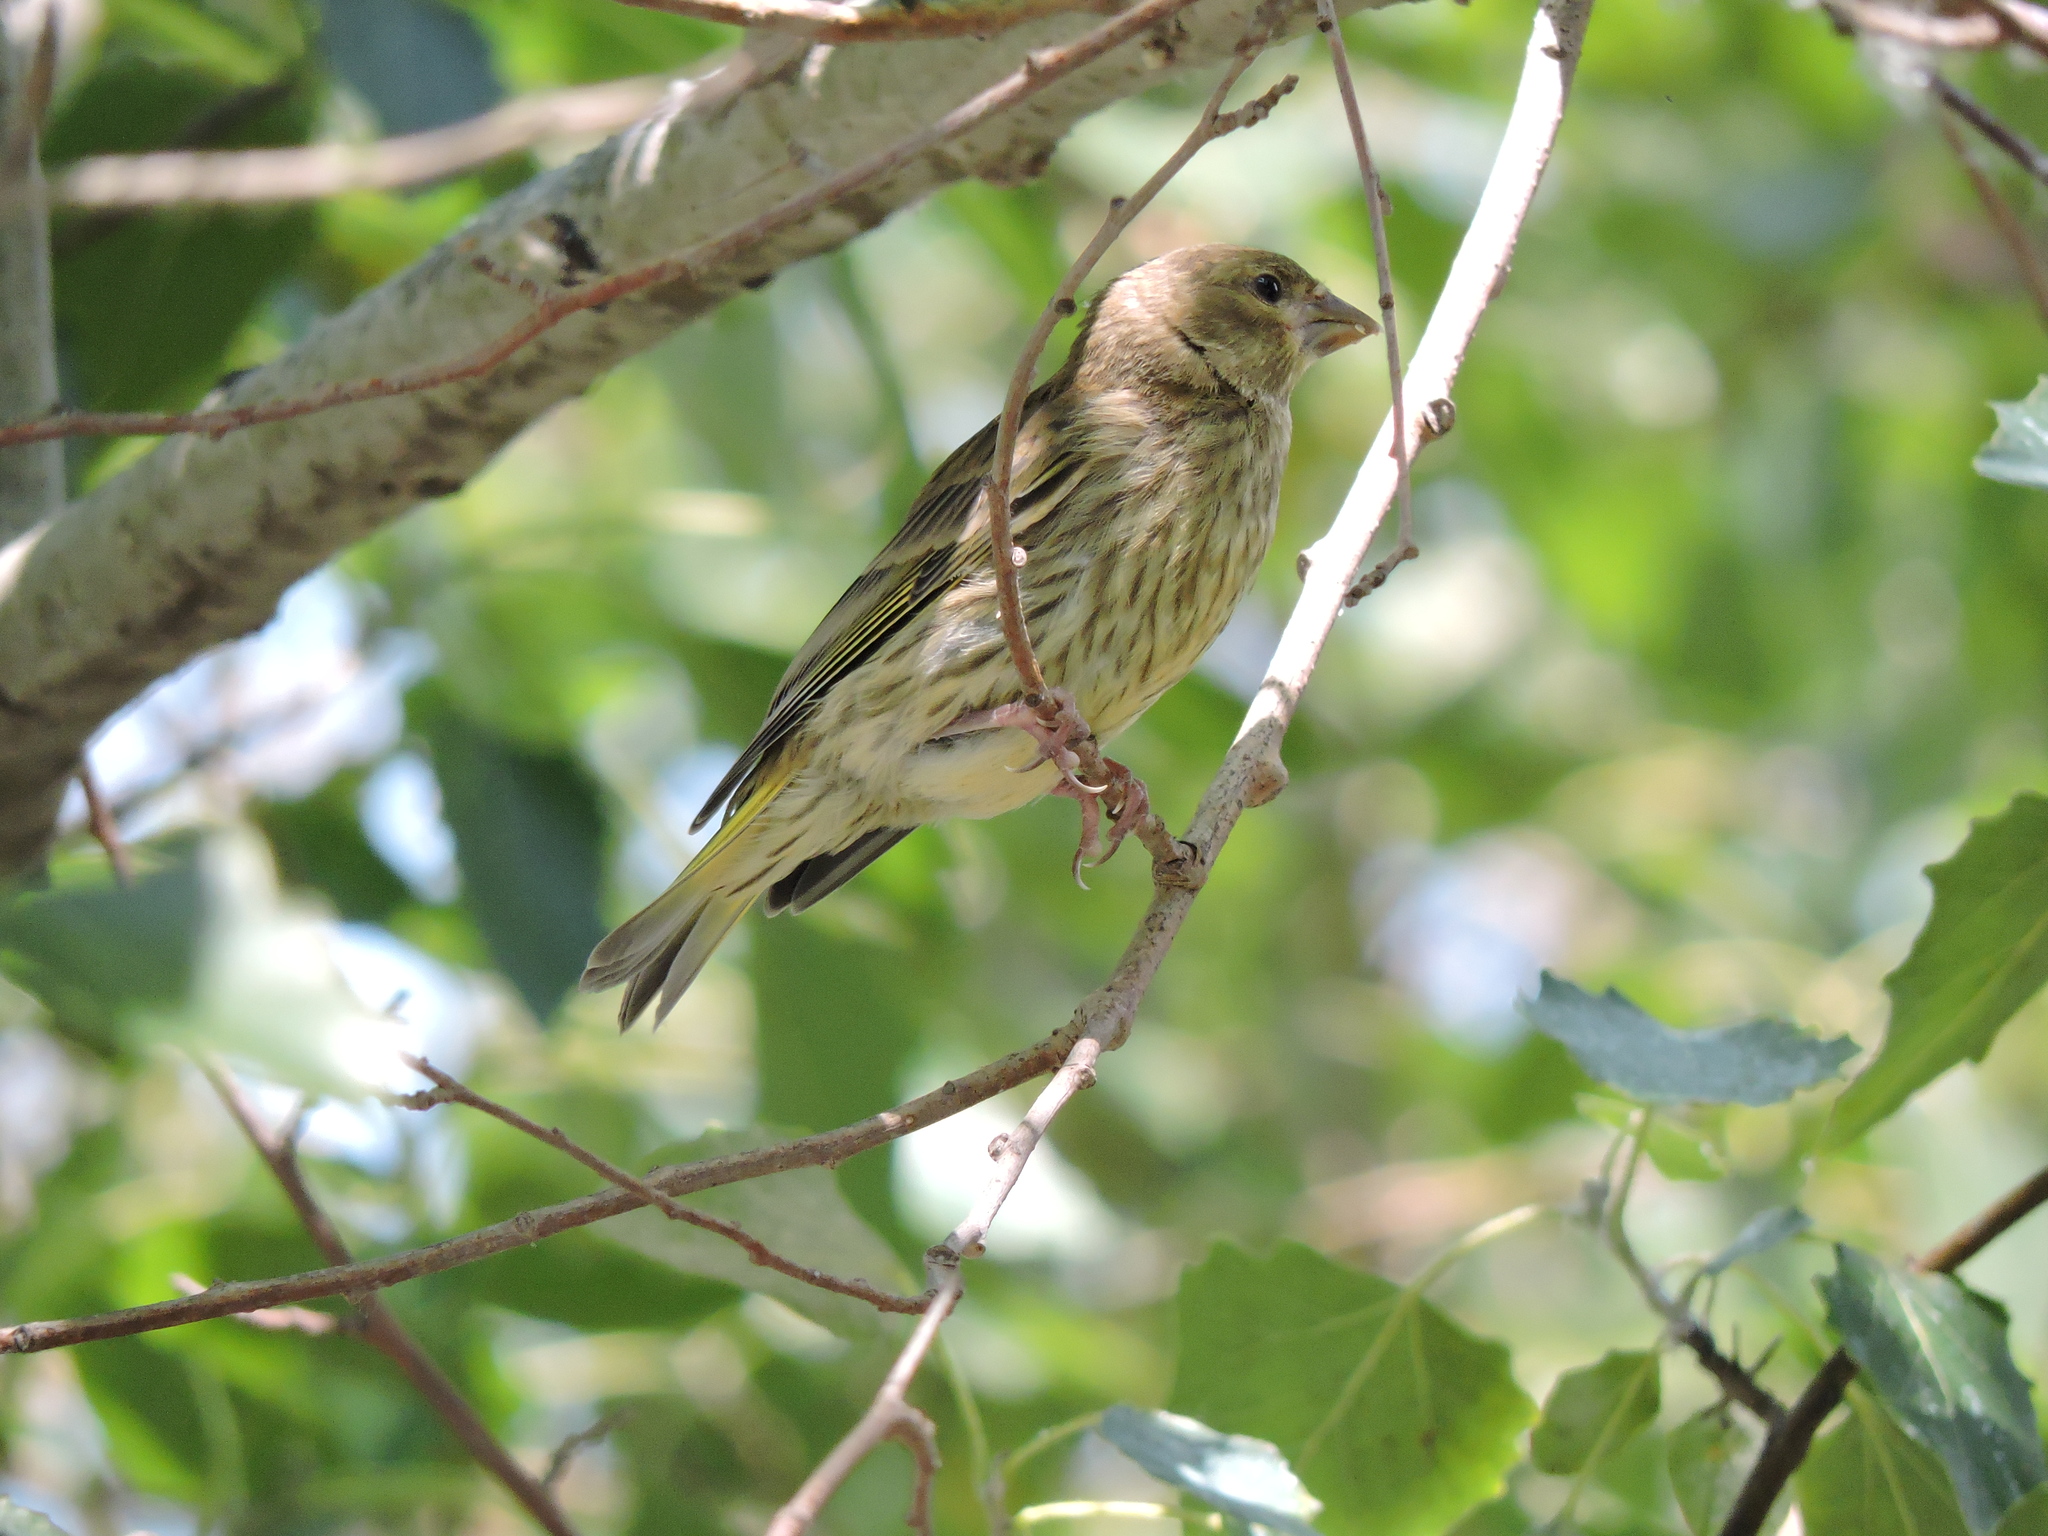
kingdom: Plantae
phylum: Tracheophyta
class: Liliopsida
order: Poales
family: Poaceae
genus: Chloris
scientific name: Chloris chloris
